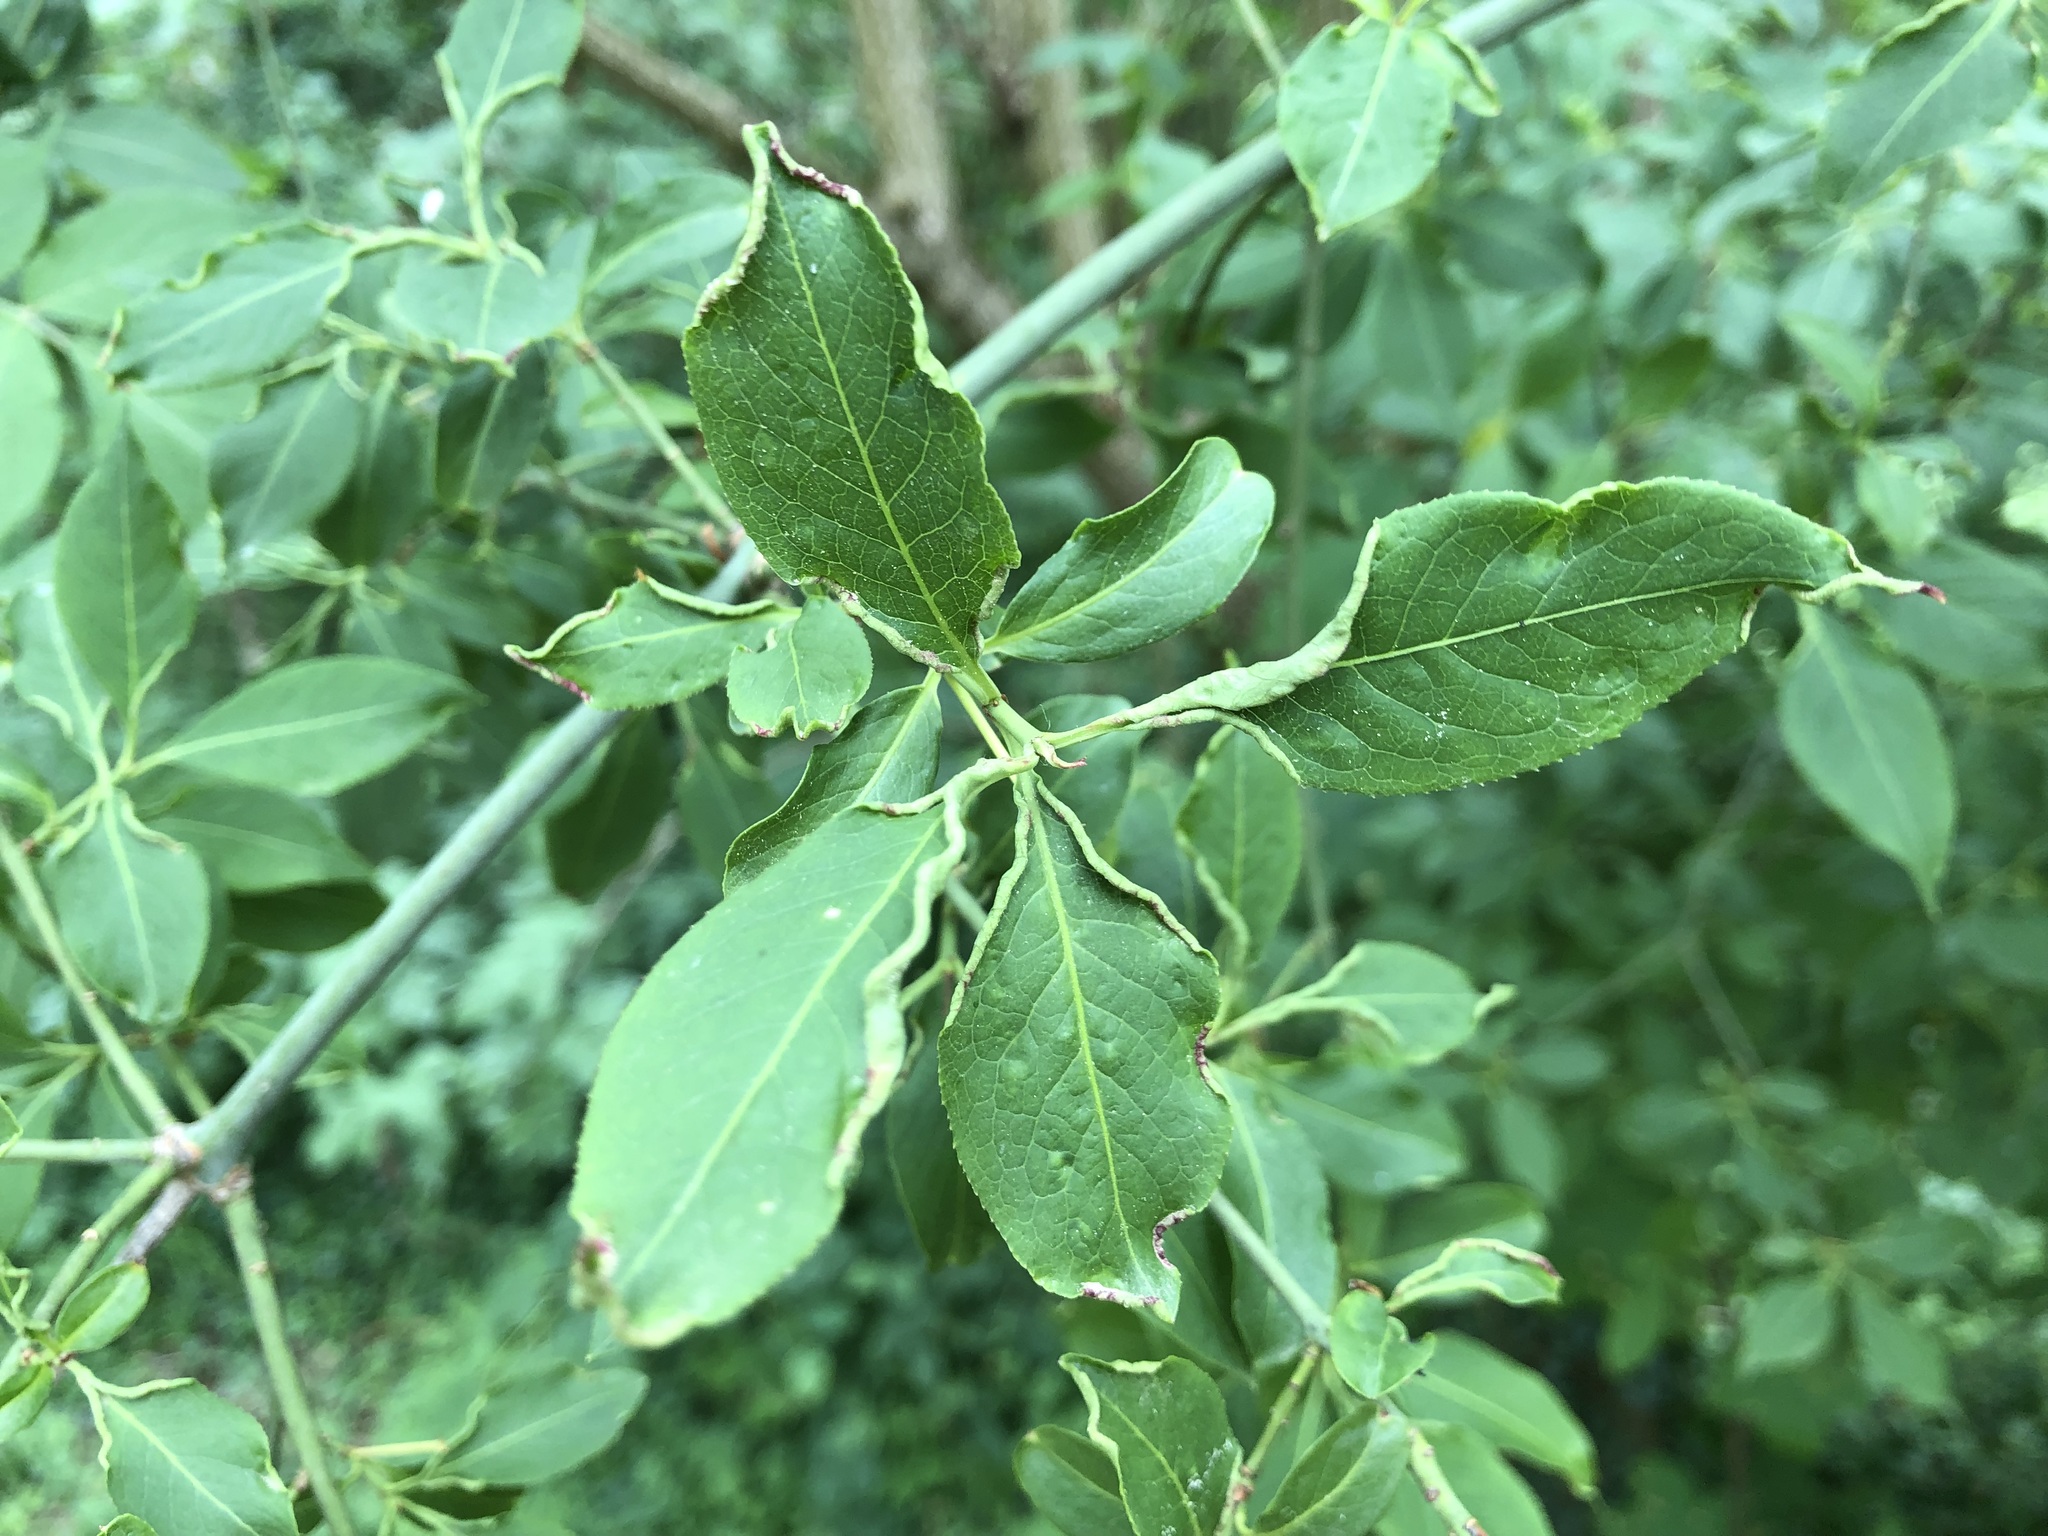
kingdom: Animalia
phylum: Arthropoda
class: Arachnida
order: Trombidiformes
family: Eriophyidae
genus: Stenacis
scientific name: Stenacis evonymi
